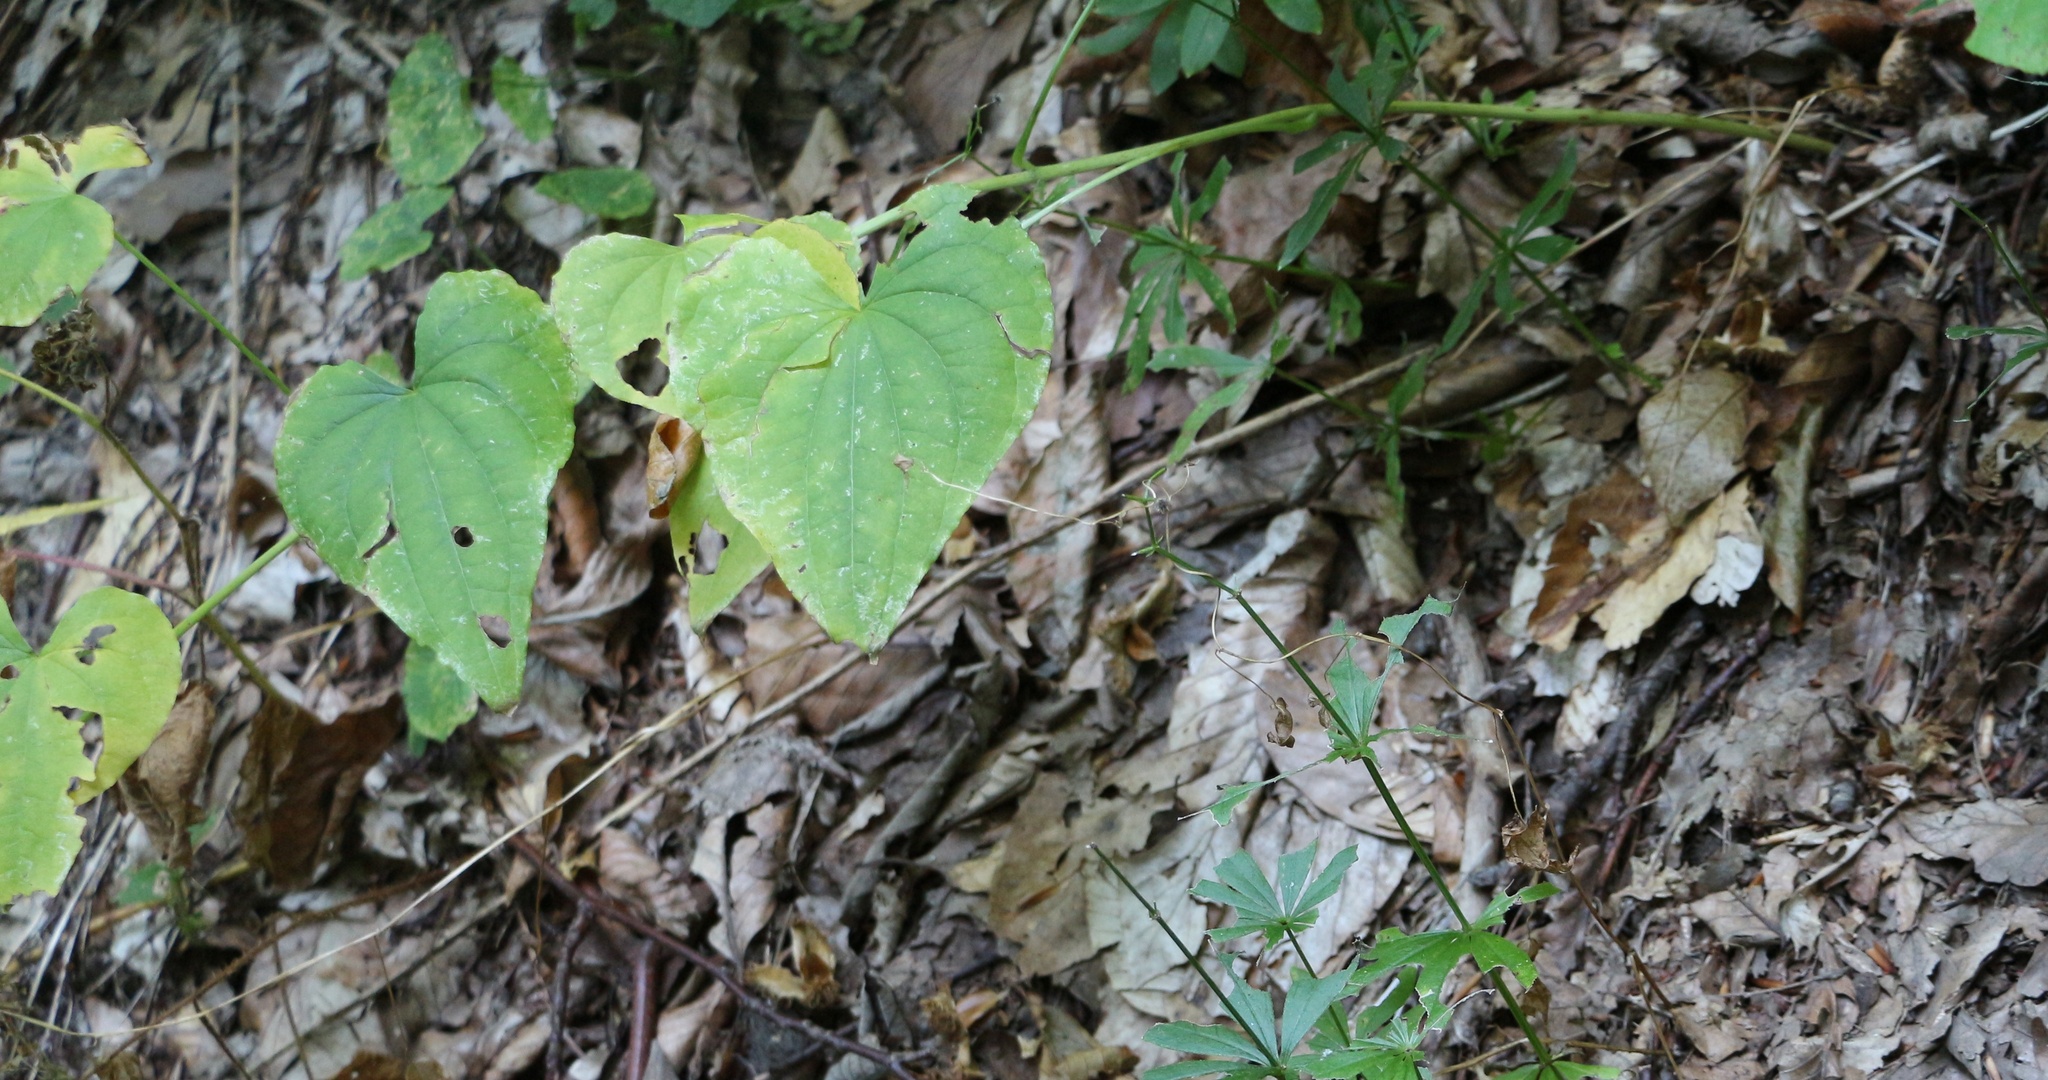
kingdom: Plantae
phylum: Tracheophyta
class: Liliopsida
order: Dioscoreales
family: Dioscoreaceae
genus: Dioscorea
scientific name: Dioscorea communis
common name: Black-bindweed
